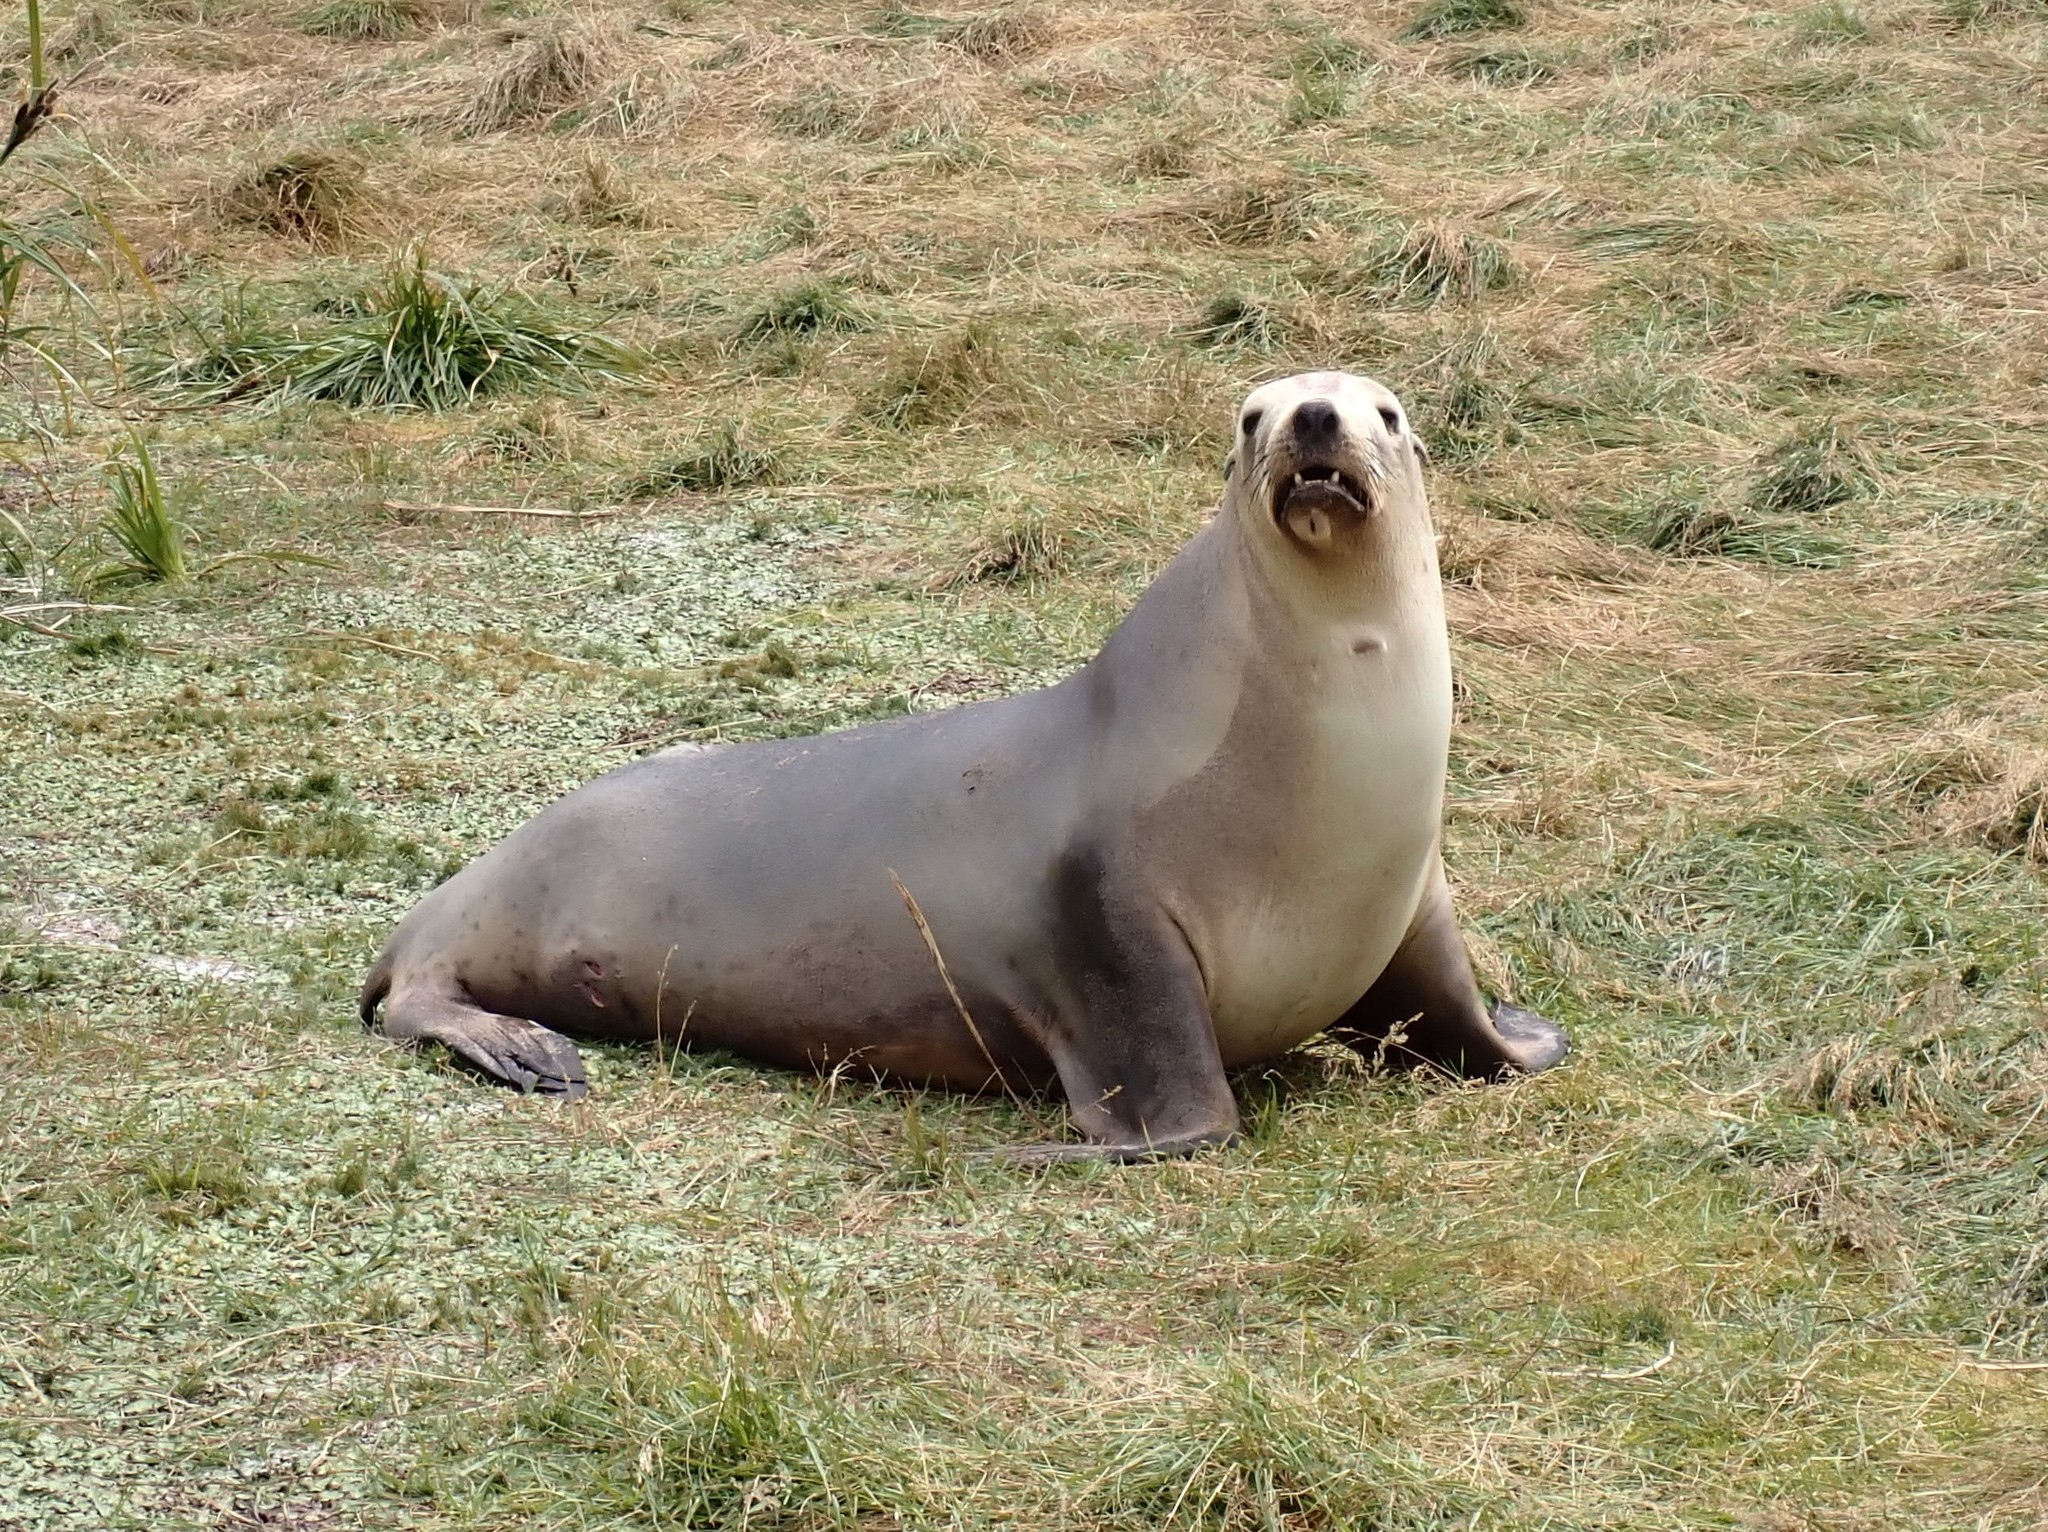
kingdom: Animalia
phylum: Chordata
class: Mammalia
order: Carnivora
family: Otariidae
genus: Phocarctos
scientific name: Phocarctos hookeri
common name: New zealand sea lion
